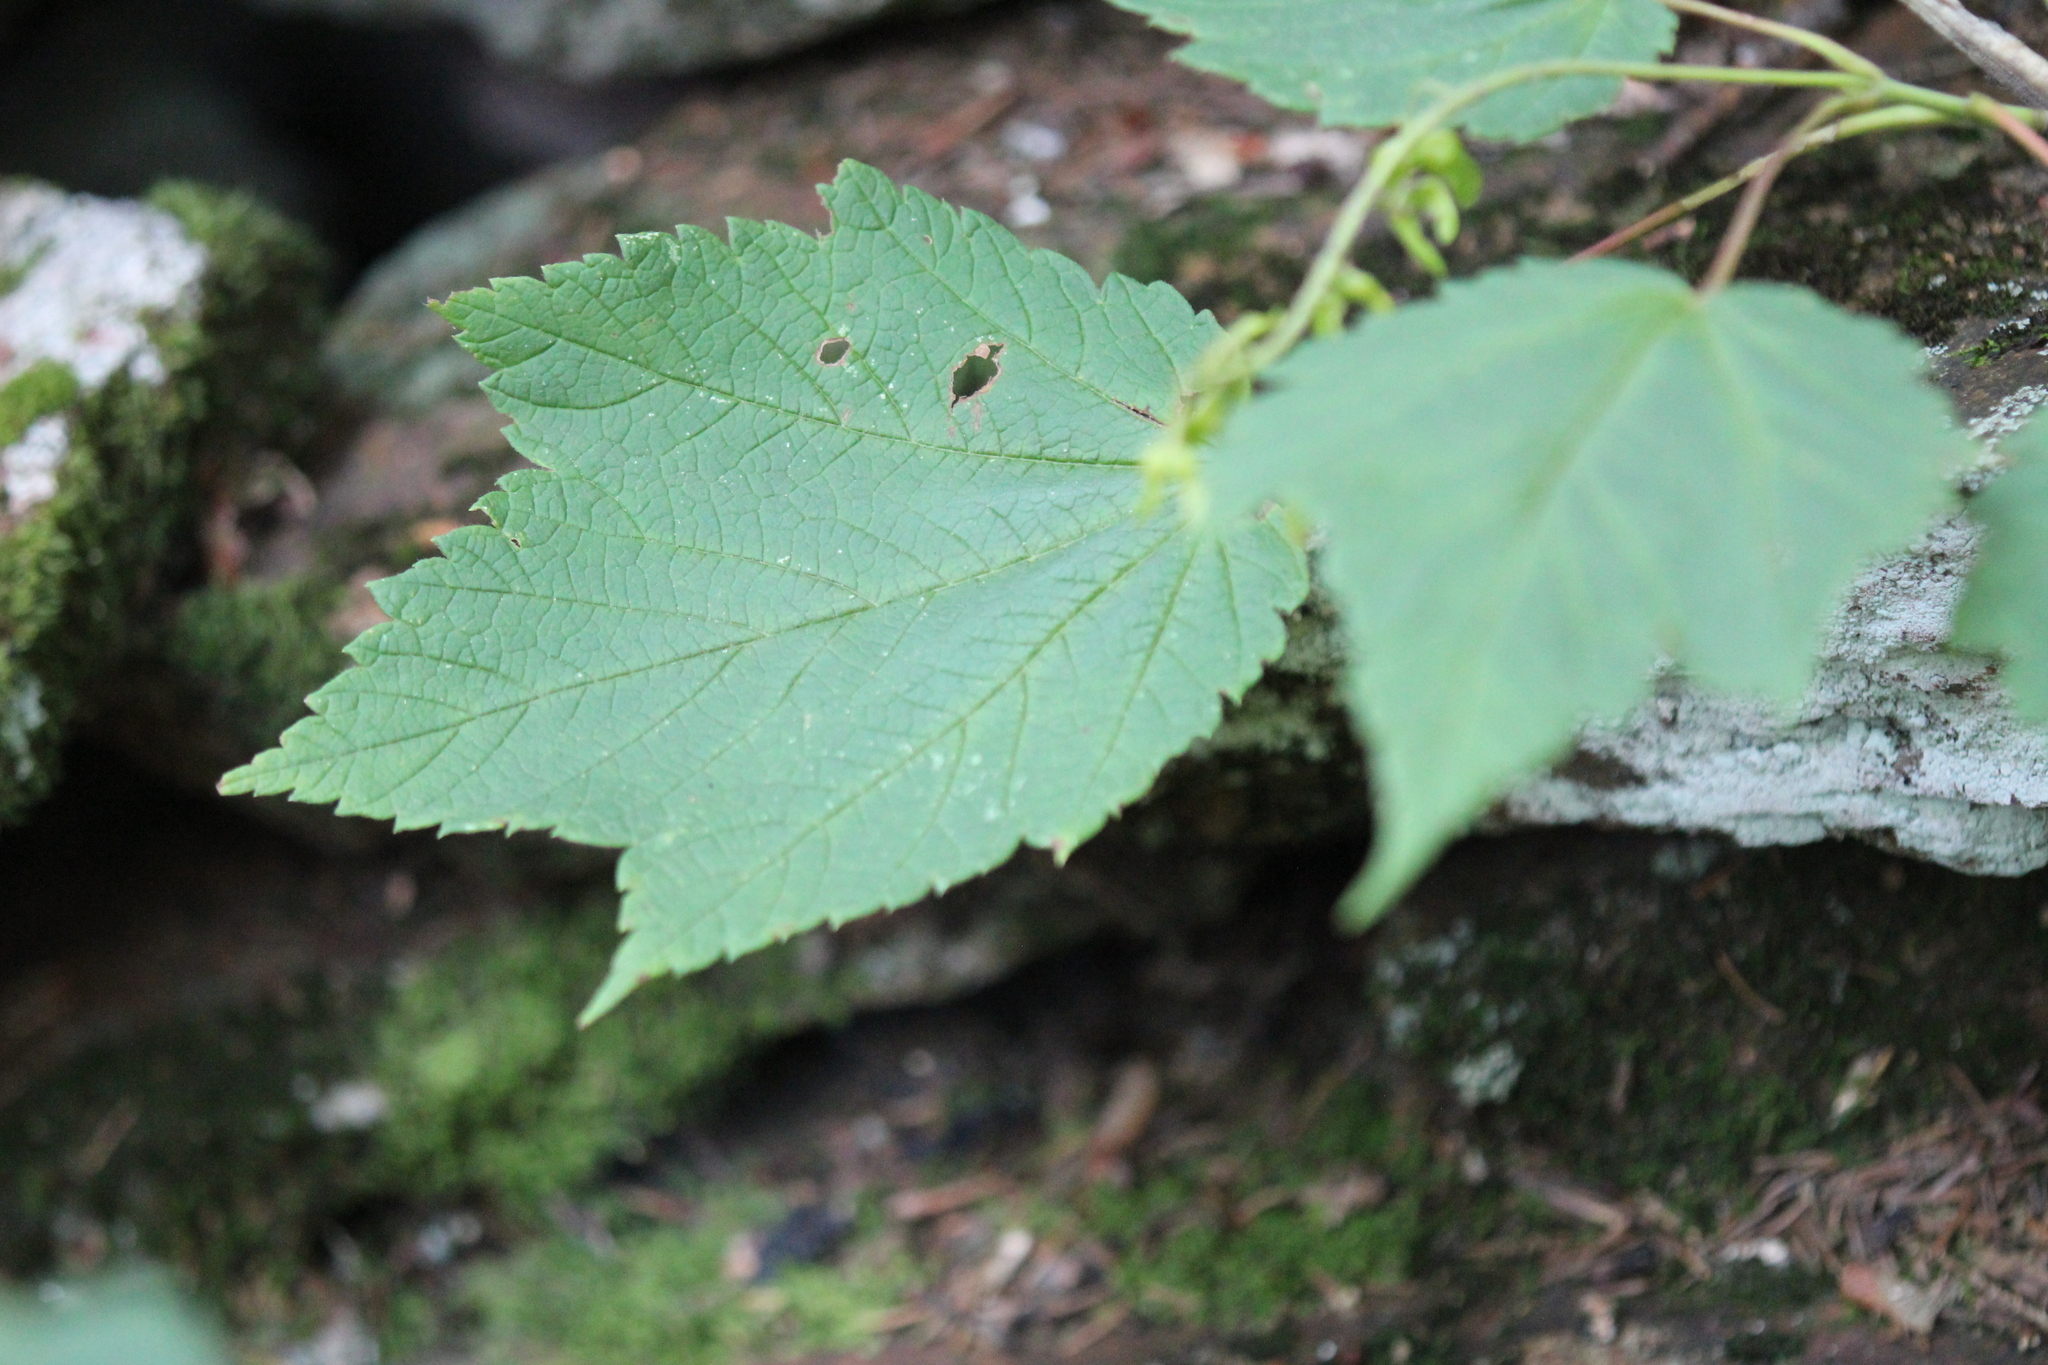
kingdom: Plantae
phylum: Tracheophyta
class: Magnoliopsida
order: Sapindales
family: Sapindaceae
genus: Acer
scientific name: Acer spicatum
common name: Mountain maple
